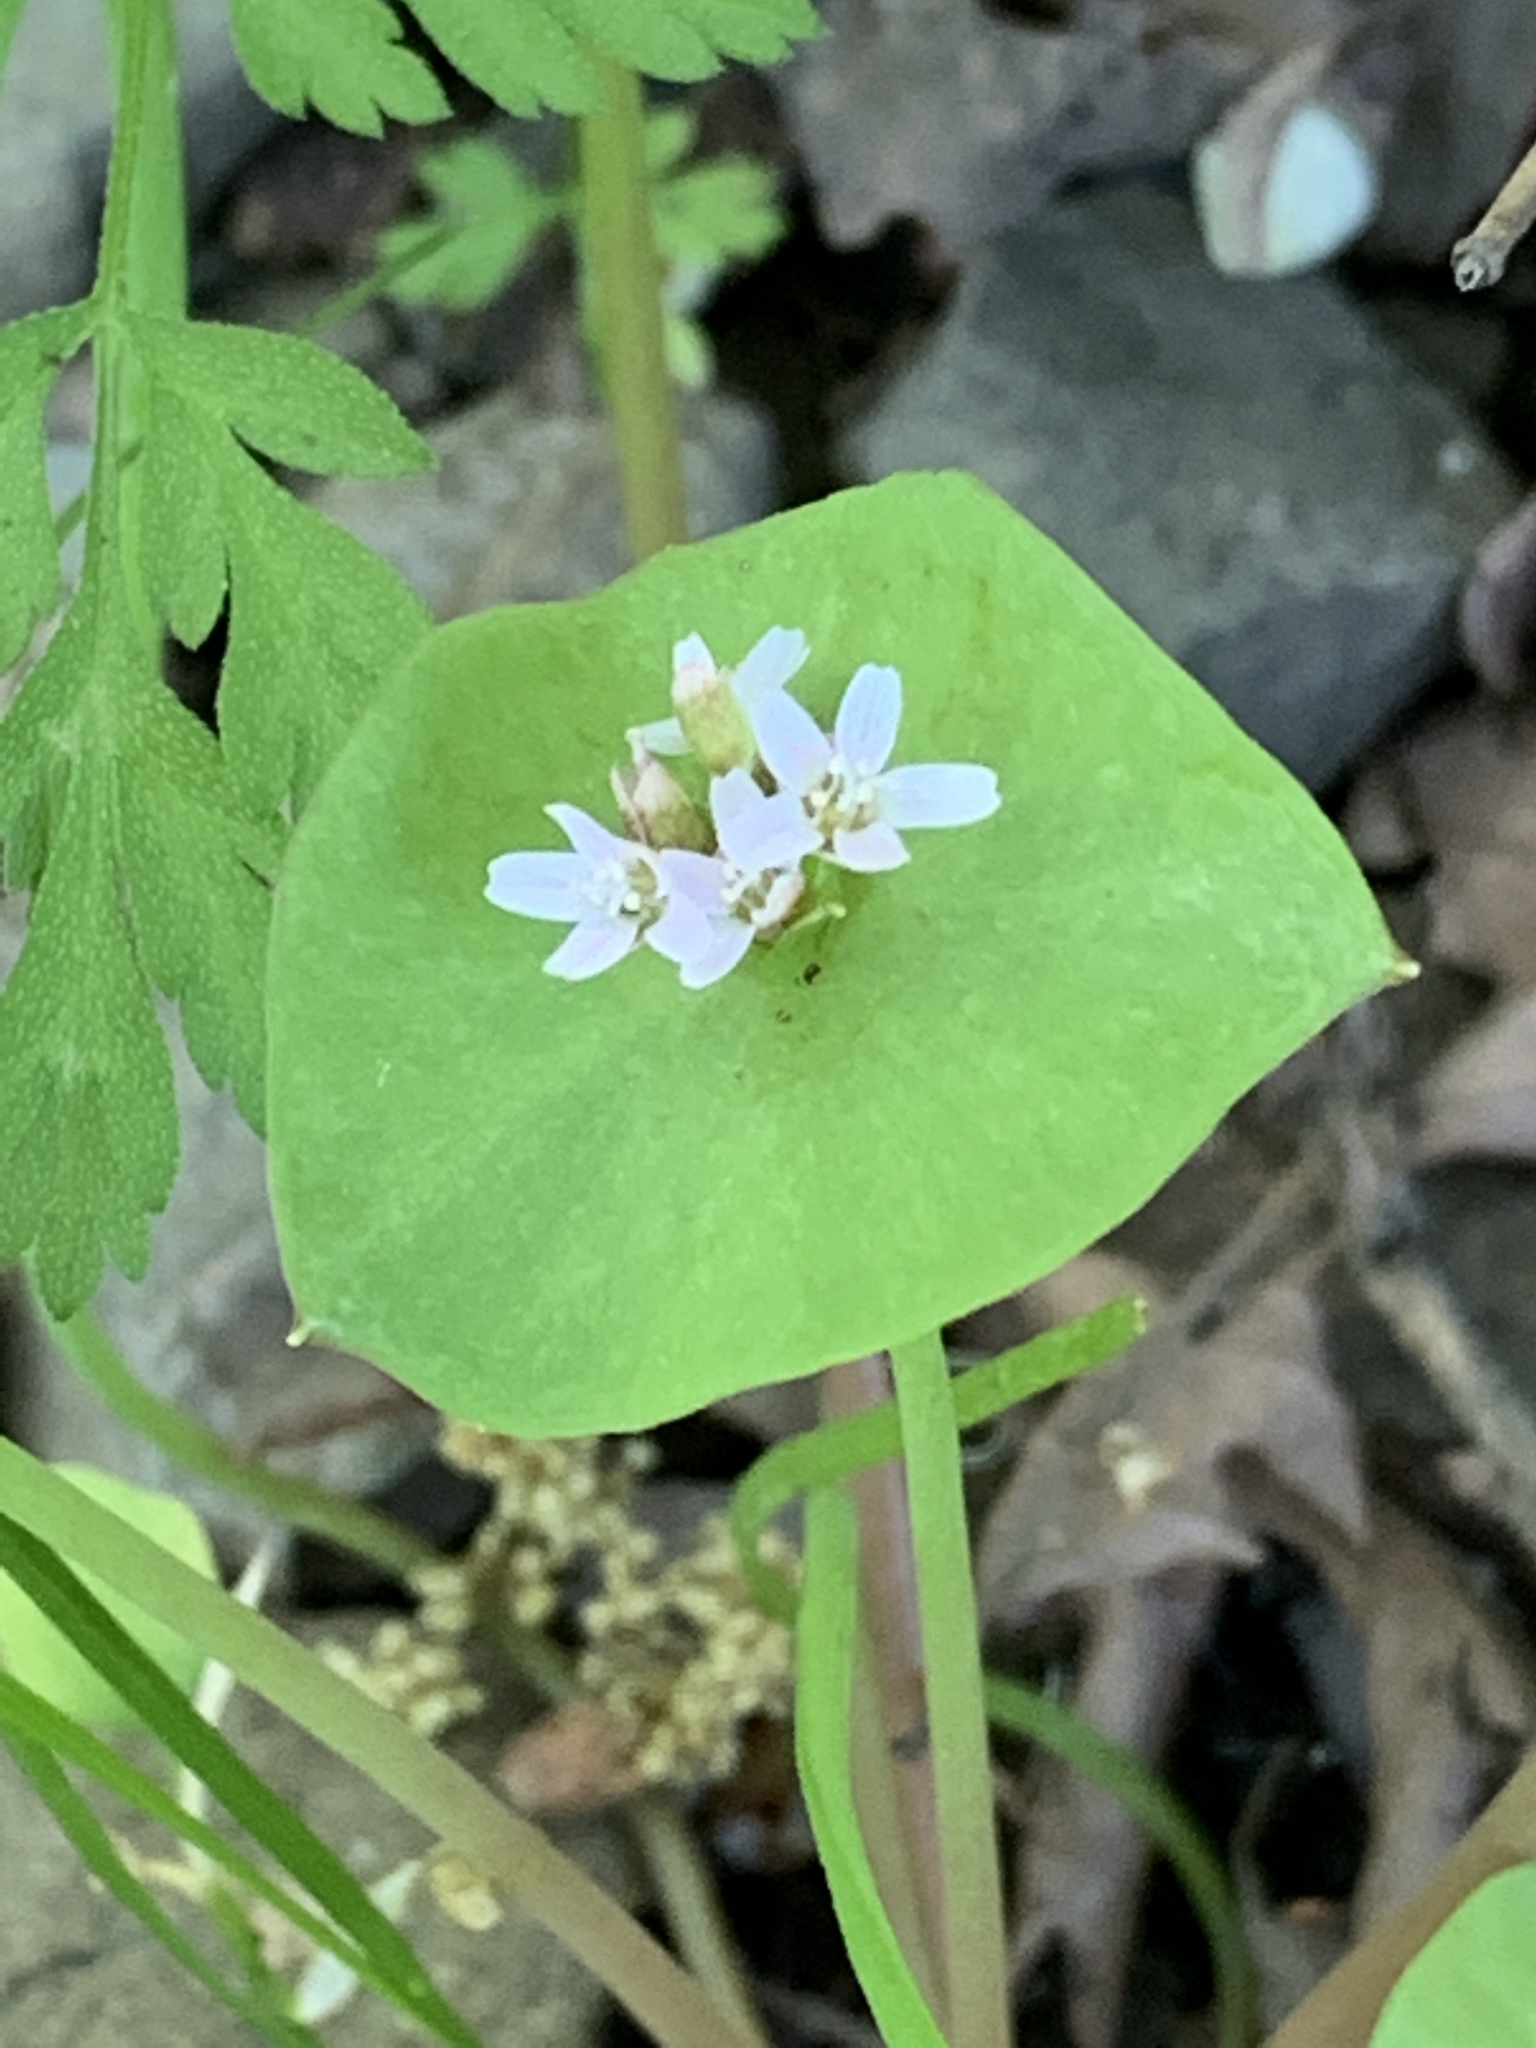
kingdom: Plantae
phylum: Tracheophyta
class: Magnoliopsida
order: Caryophyllales
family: Montiaceae
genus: Claytonia
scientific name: Claytonia perfoliata
